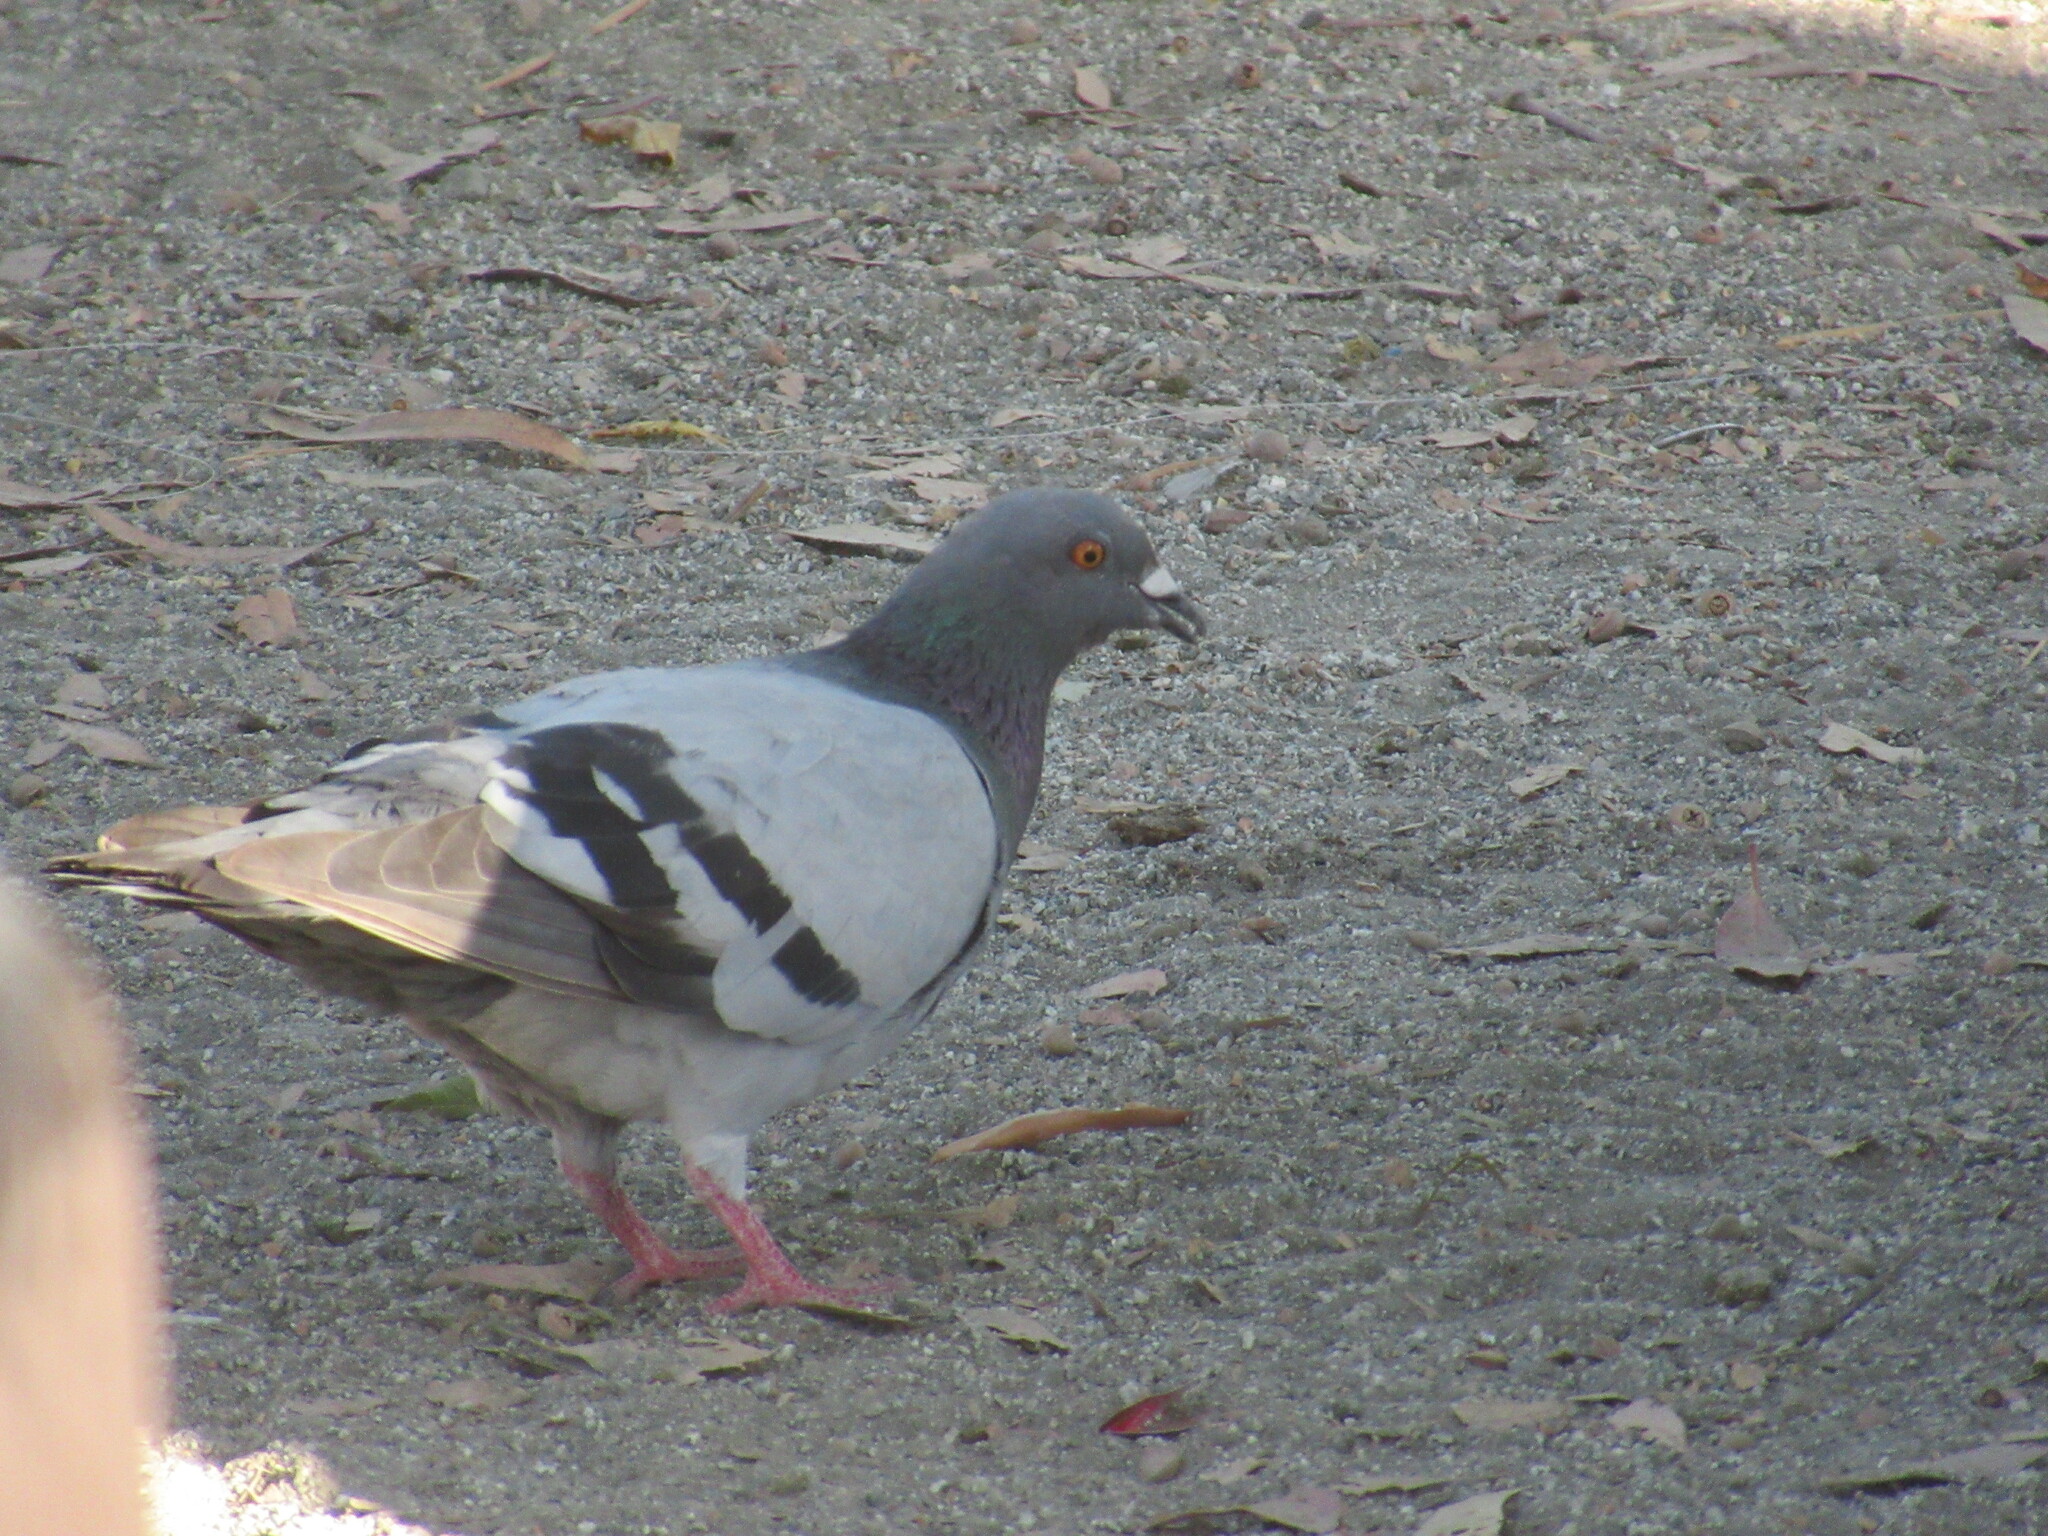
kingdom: Animalia
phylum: Chordata
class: Aves
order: Columbiformes
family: Columbidae
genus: Columba
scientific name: Columba livia
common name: Rock pigeon
